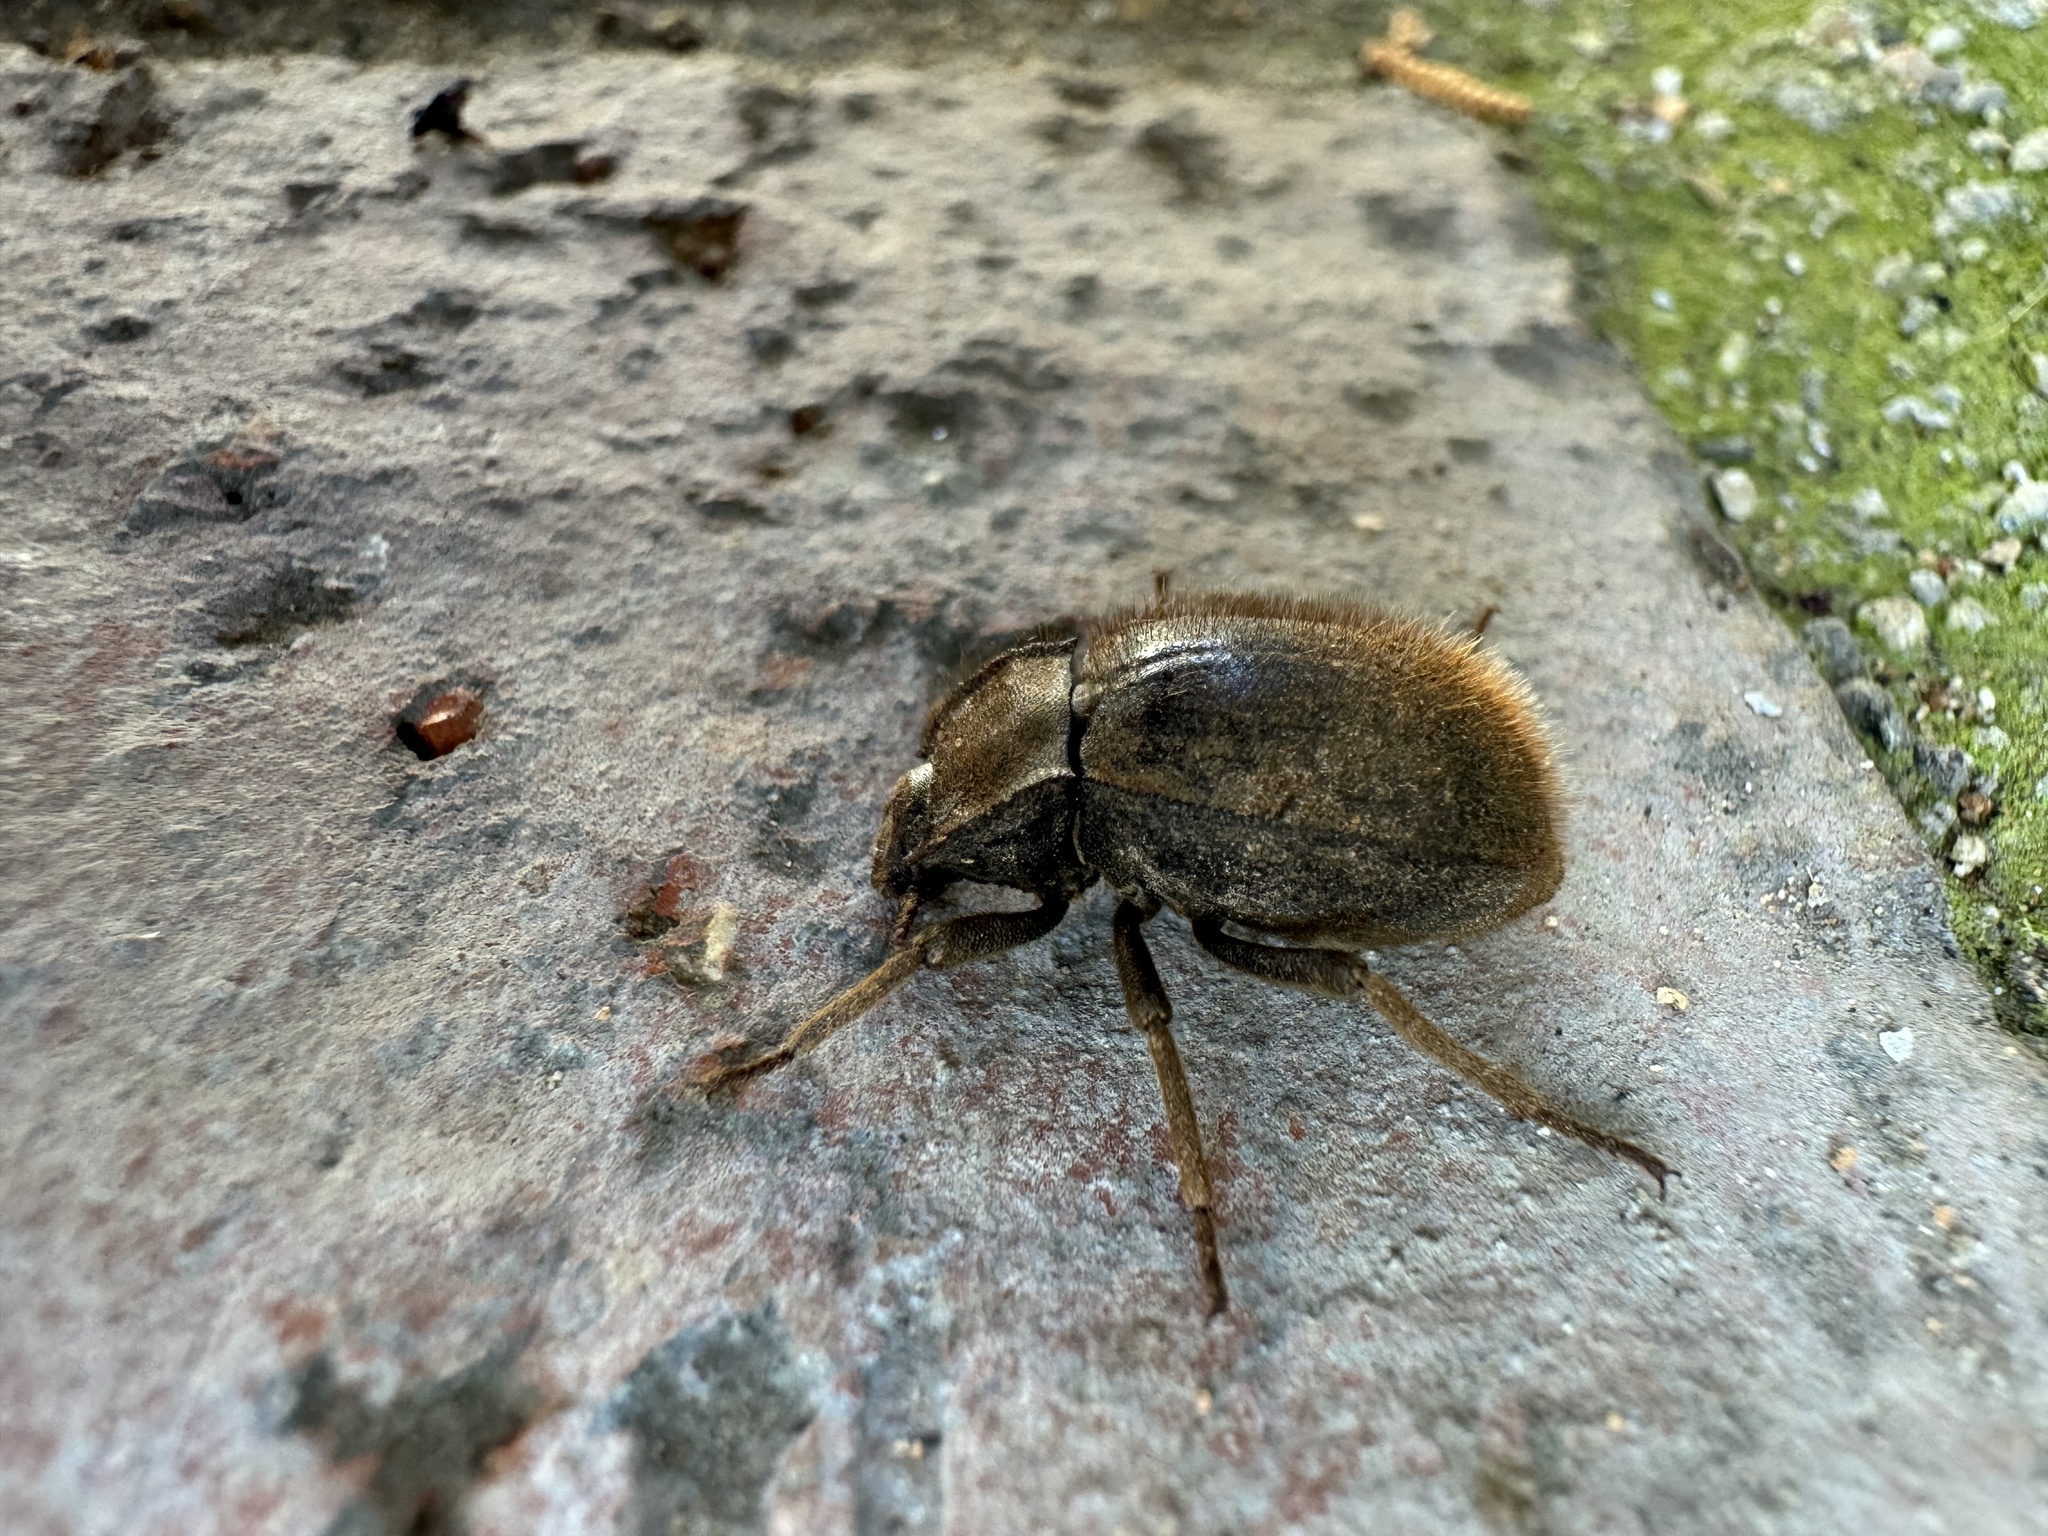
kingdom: Animalia
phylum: Arthropoda
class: Insecta
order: Coleoptera
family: Tenebrionidae
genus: Stenomorpha
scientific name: Stenomorpha muricatula
